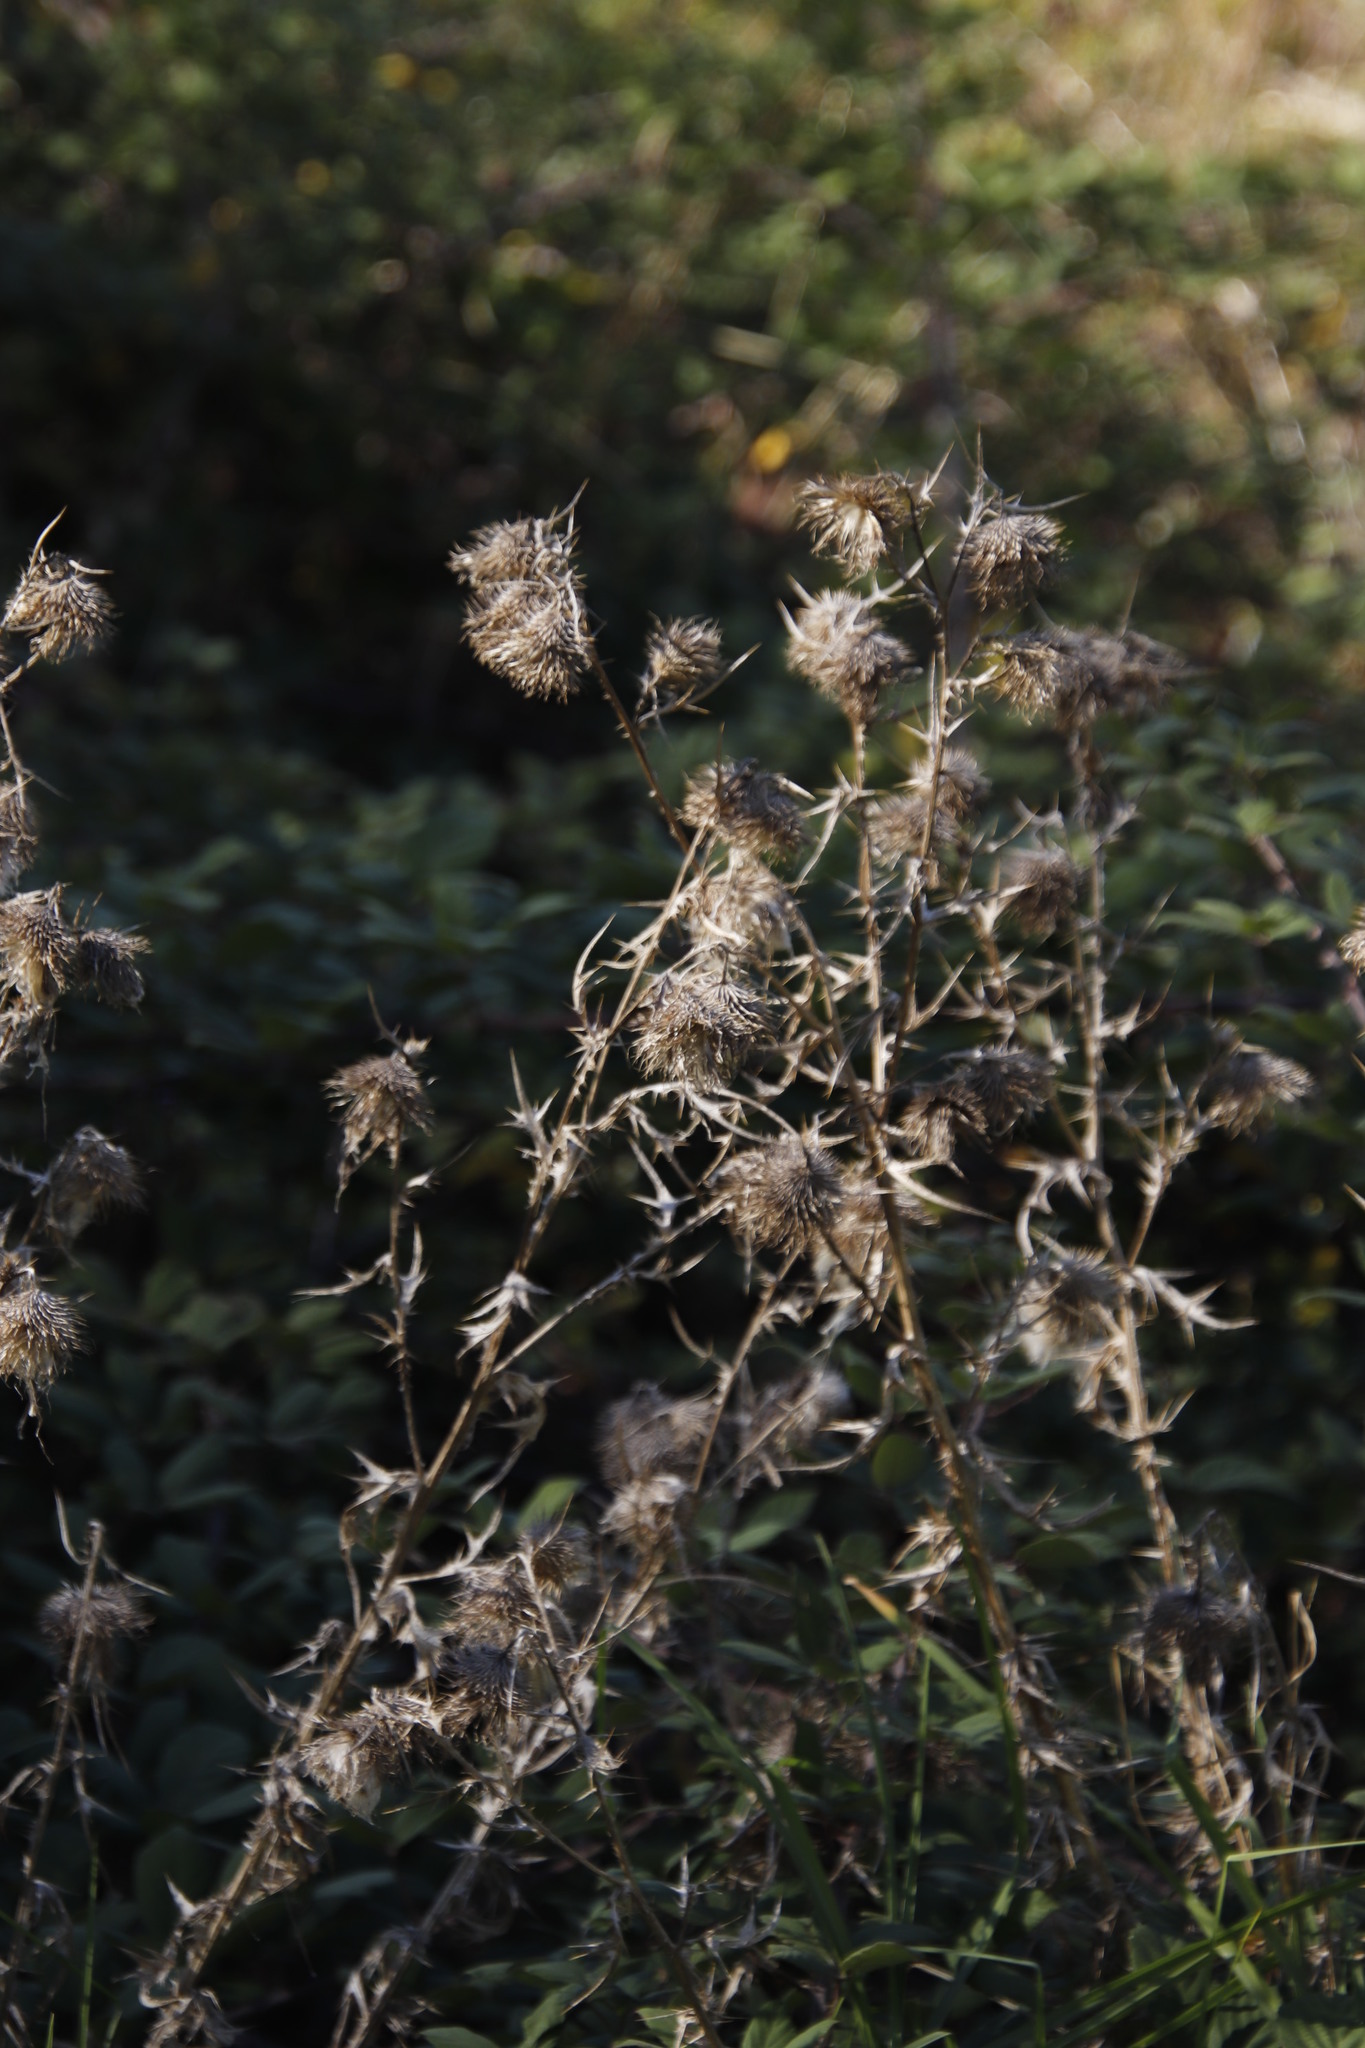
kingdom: Plantae
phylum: Tracheophyta
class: Magnoliopsida
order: Asterales
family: Asteraceae
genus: Cirsium
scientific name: Cirsium vulgare
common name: Bull thistle
